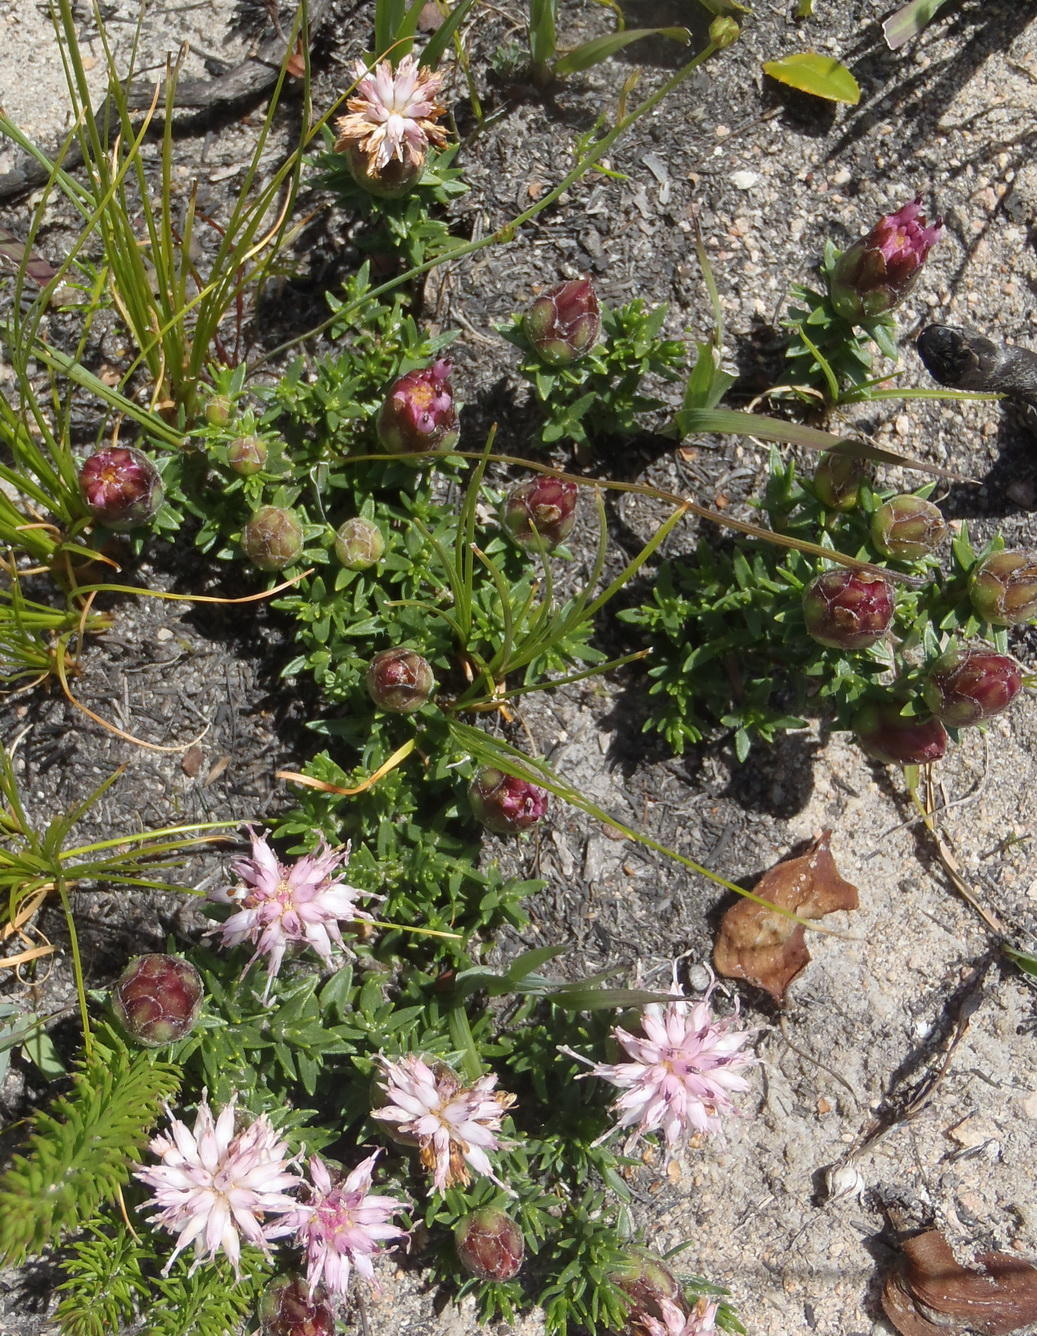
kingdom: Plantae
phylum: Tracheophyta
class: Magnoliopsida
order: Asterales
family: Asteraceae
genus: Pteronia
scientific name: Pteronia hirsuta
